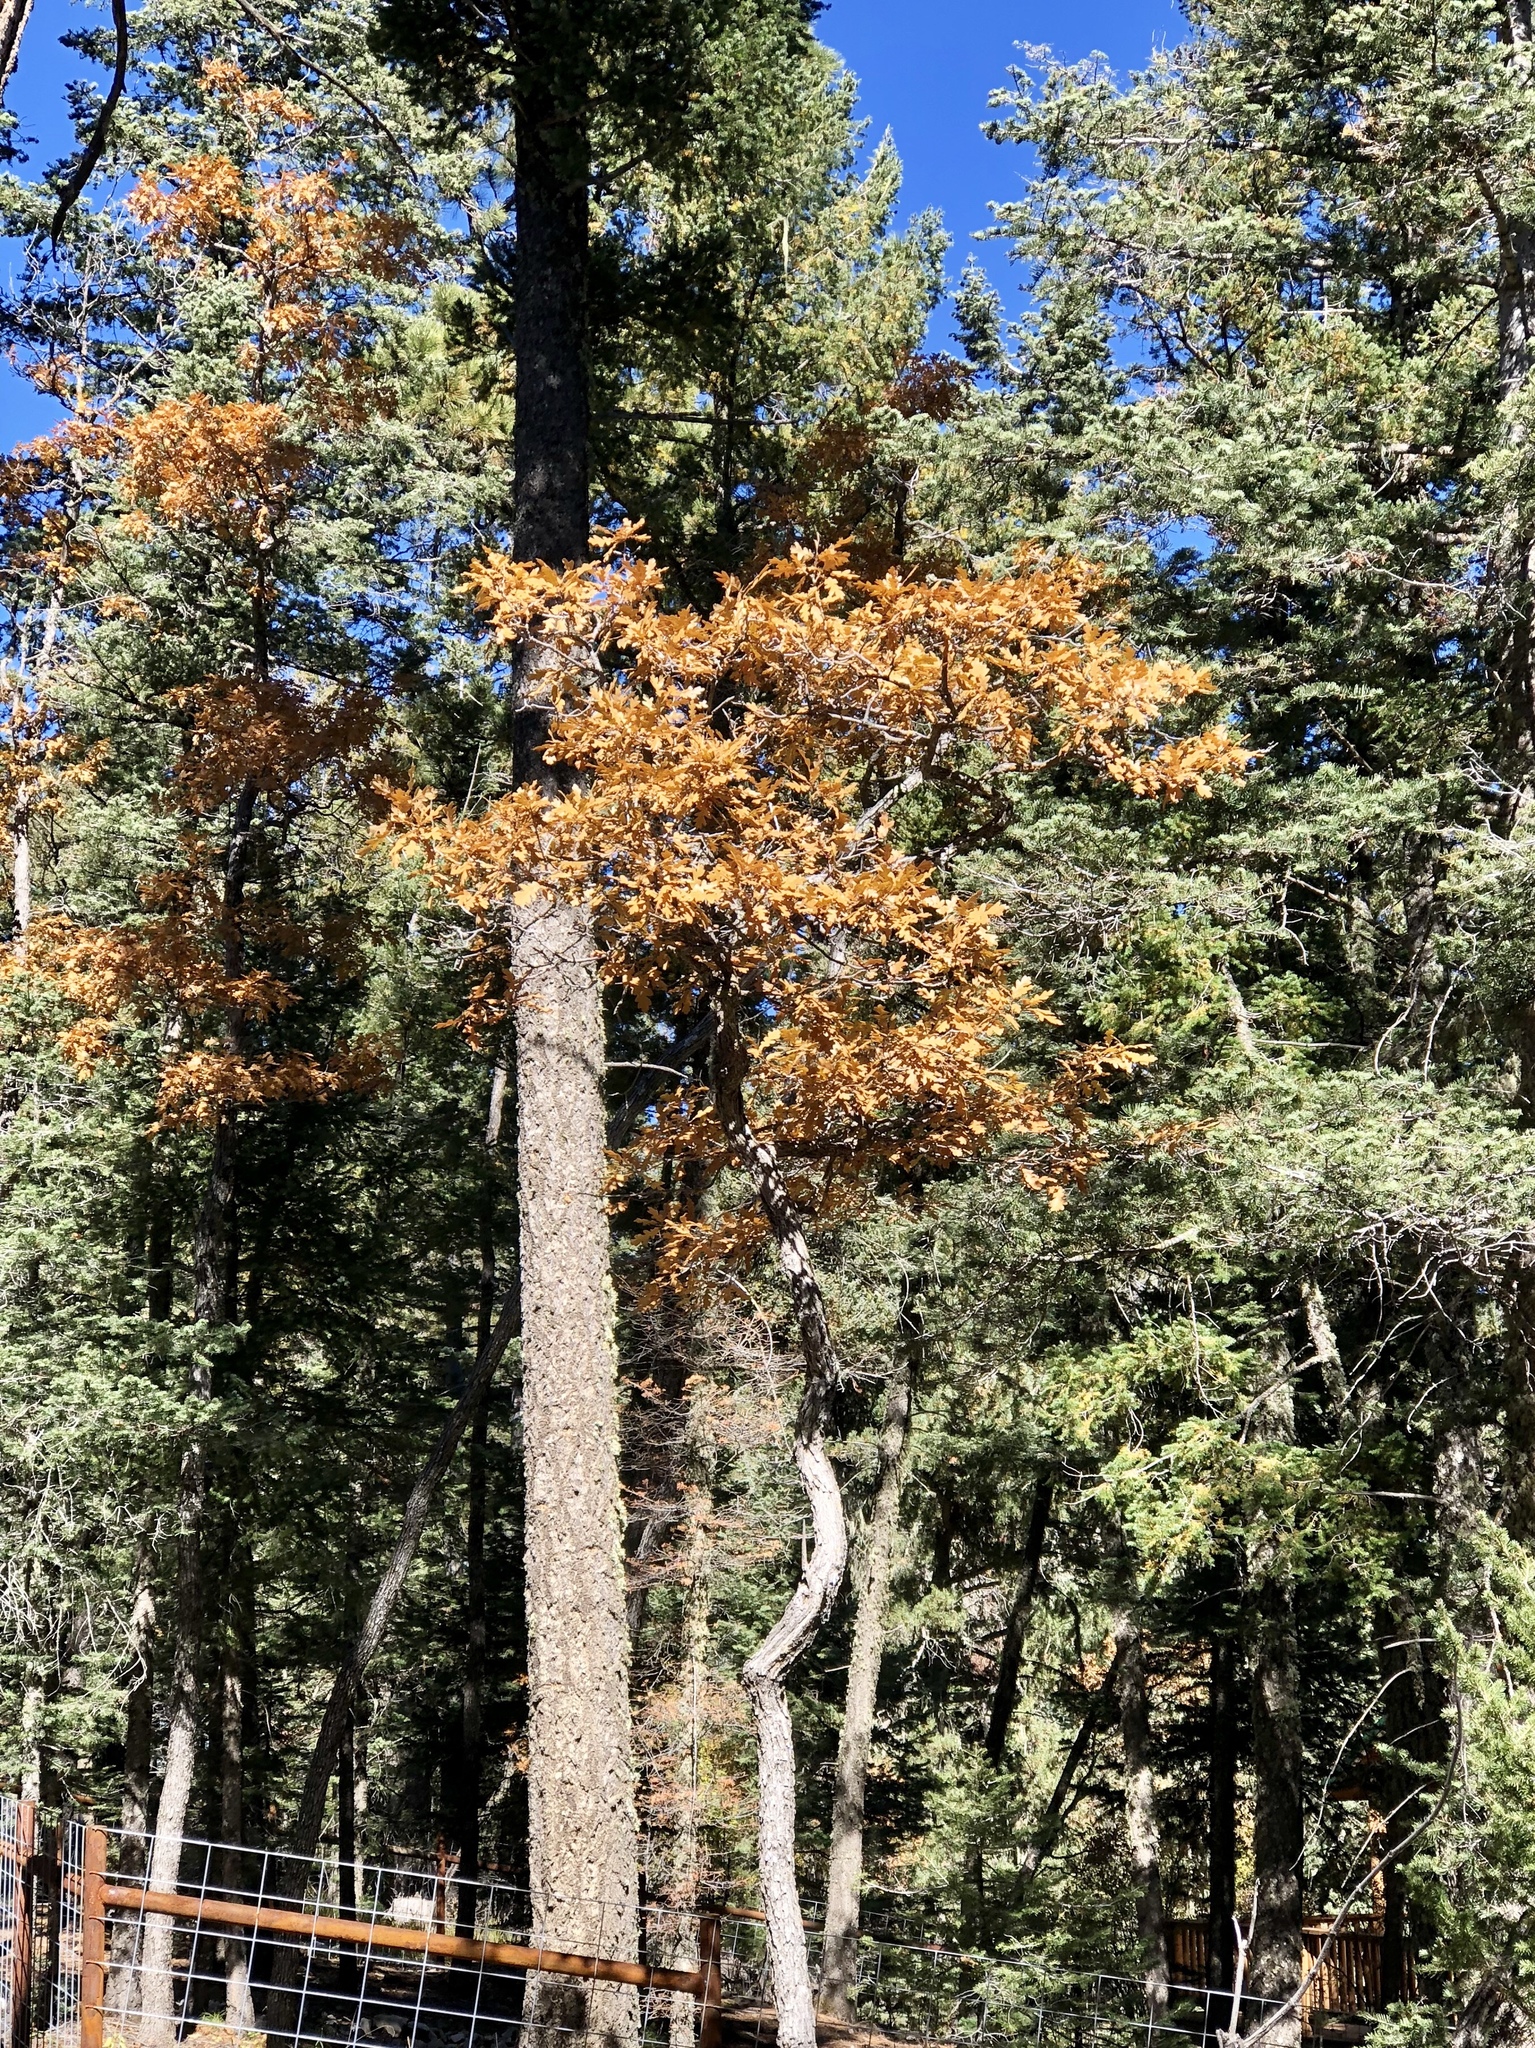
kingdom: Plantae
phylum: Tracheophyta
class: Magnoliopsida
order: Fagales
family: Fagaceae
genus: Quercus
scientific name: Quercus gambelii
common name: Gambel oak
